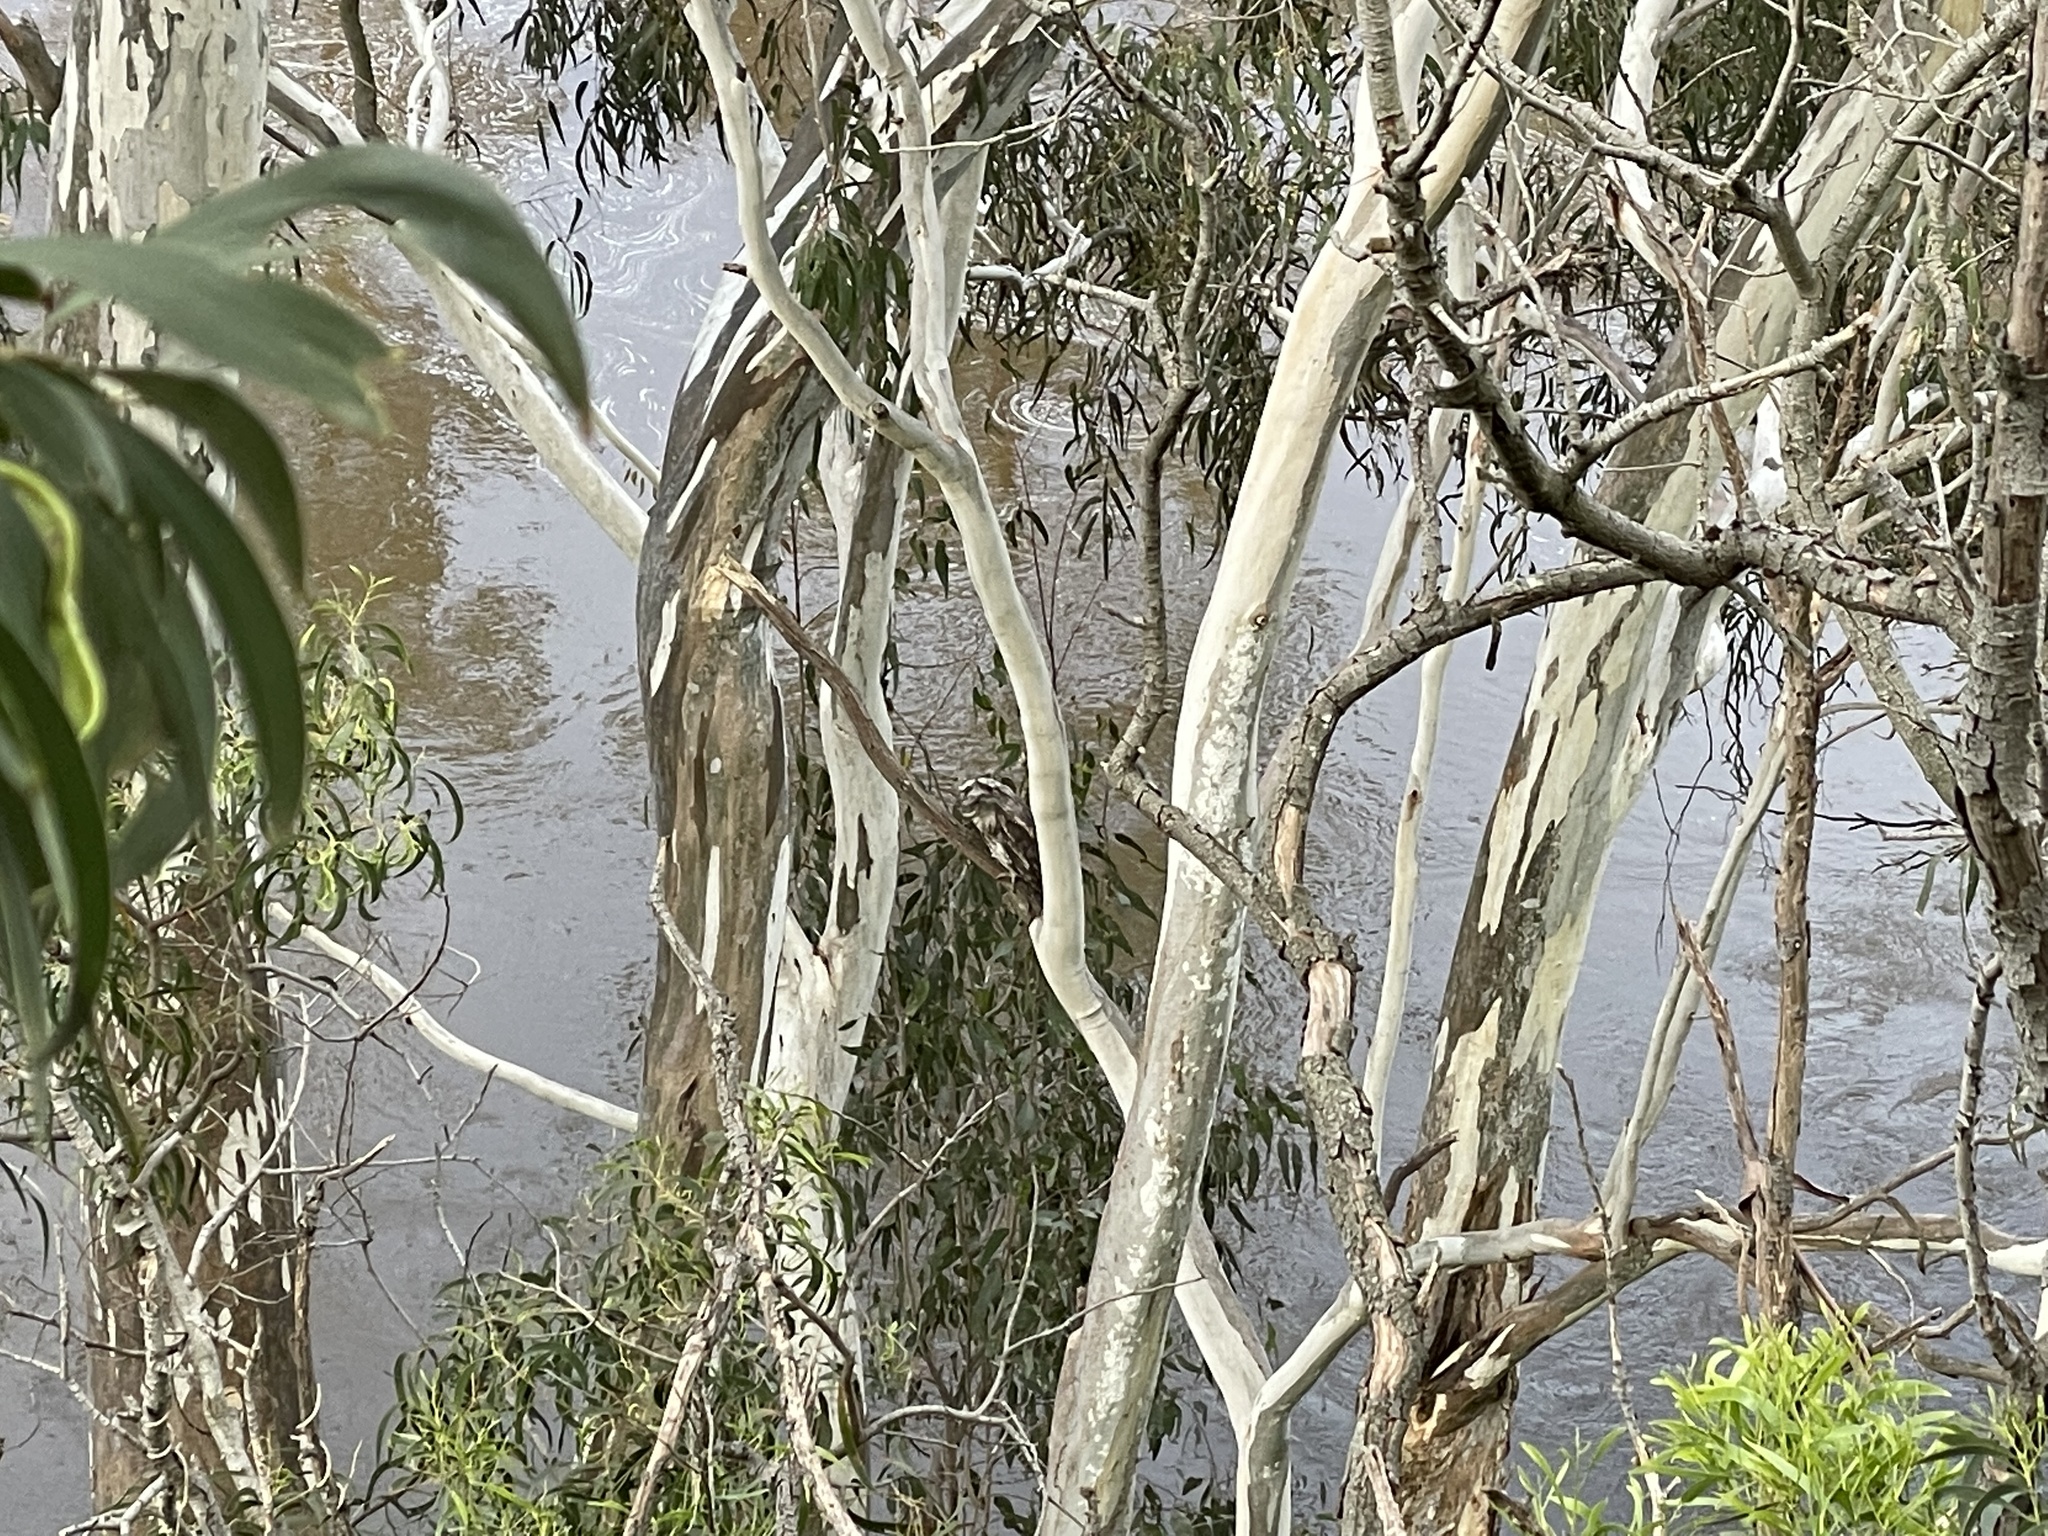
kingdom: Animalia
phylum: Chordata
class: Aves
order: Caprimulgiformes
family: Podargidae
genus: Podargus
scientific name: Podargus strigoides
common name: Tawny frogmouth
